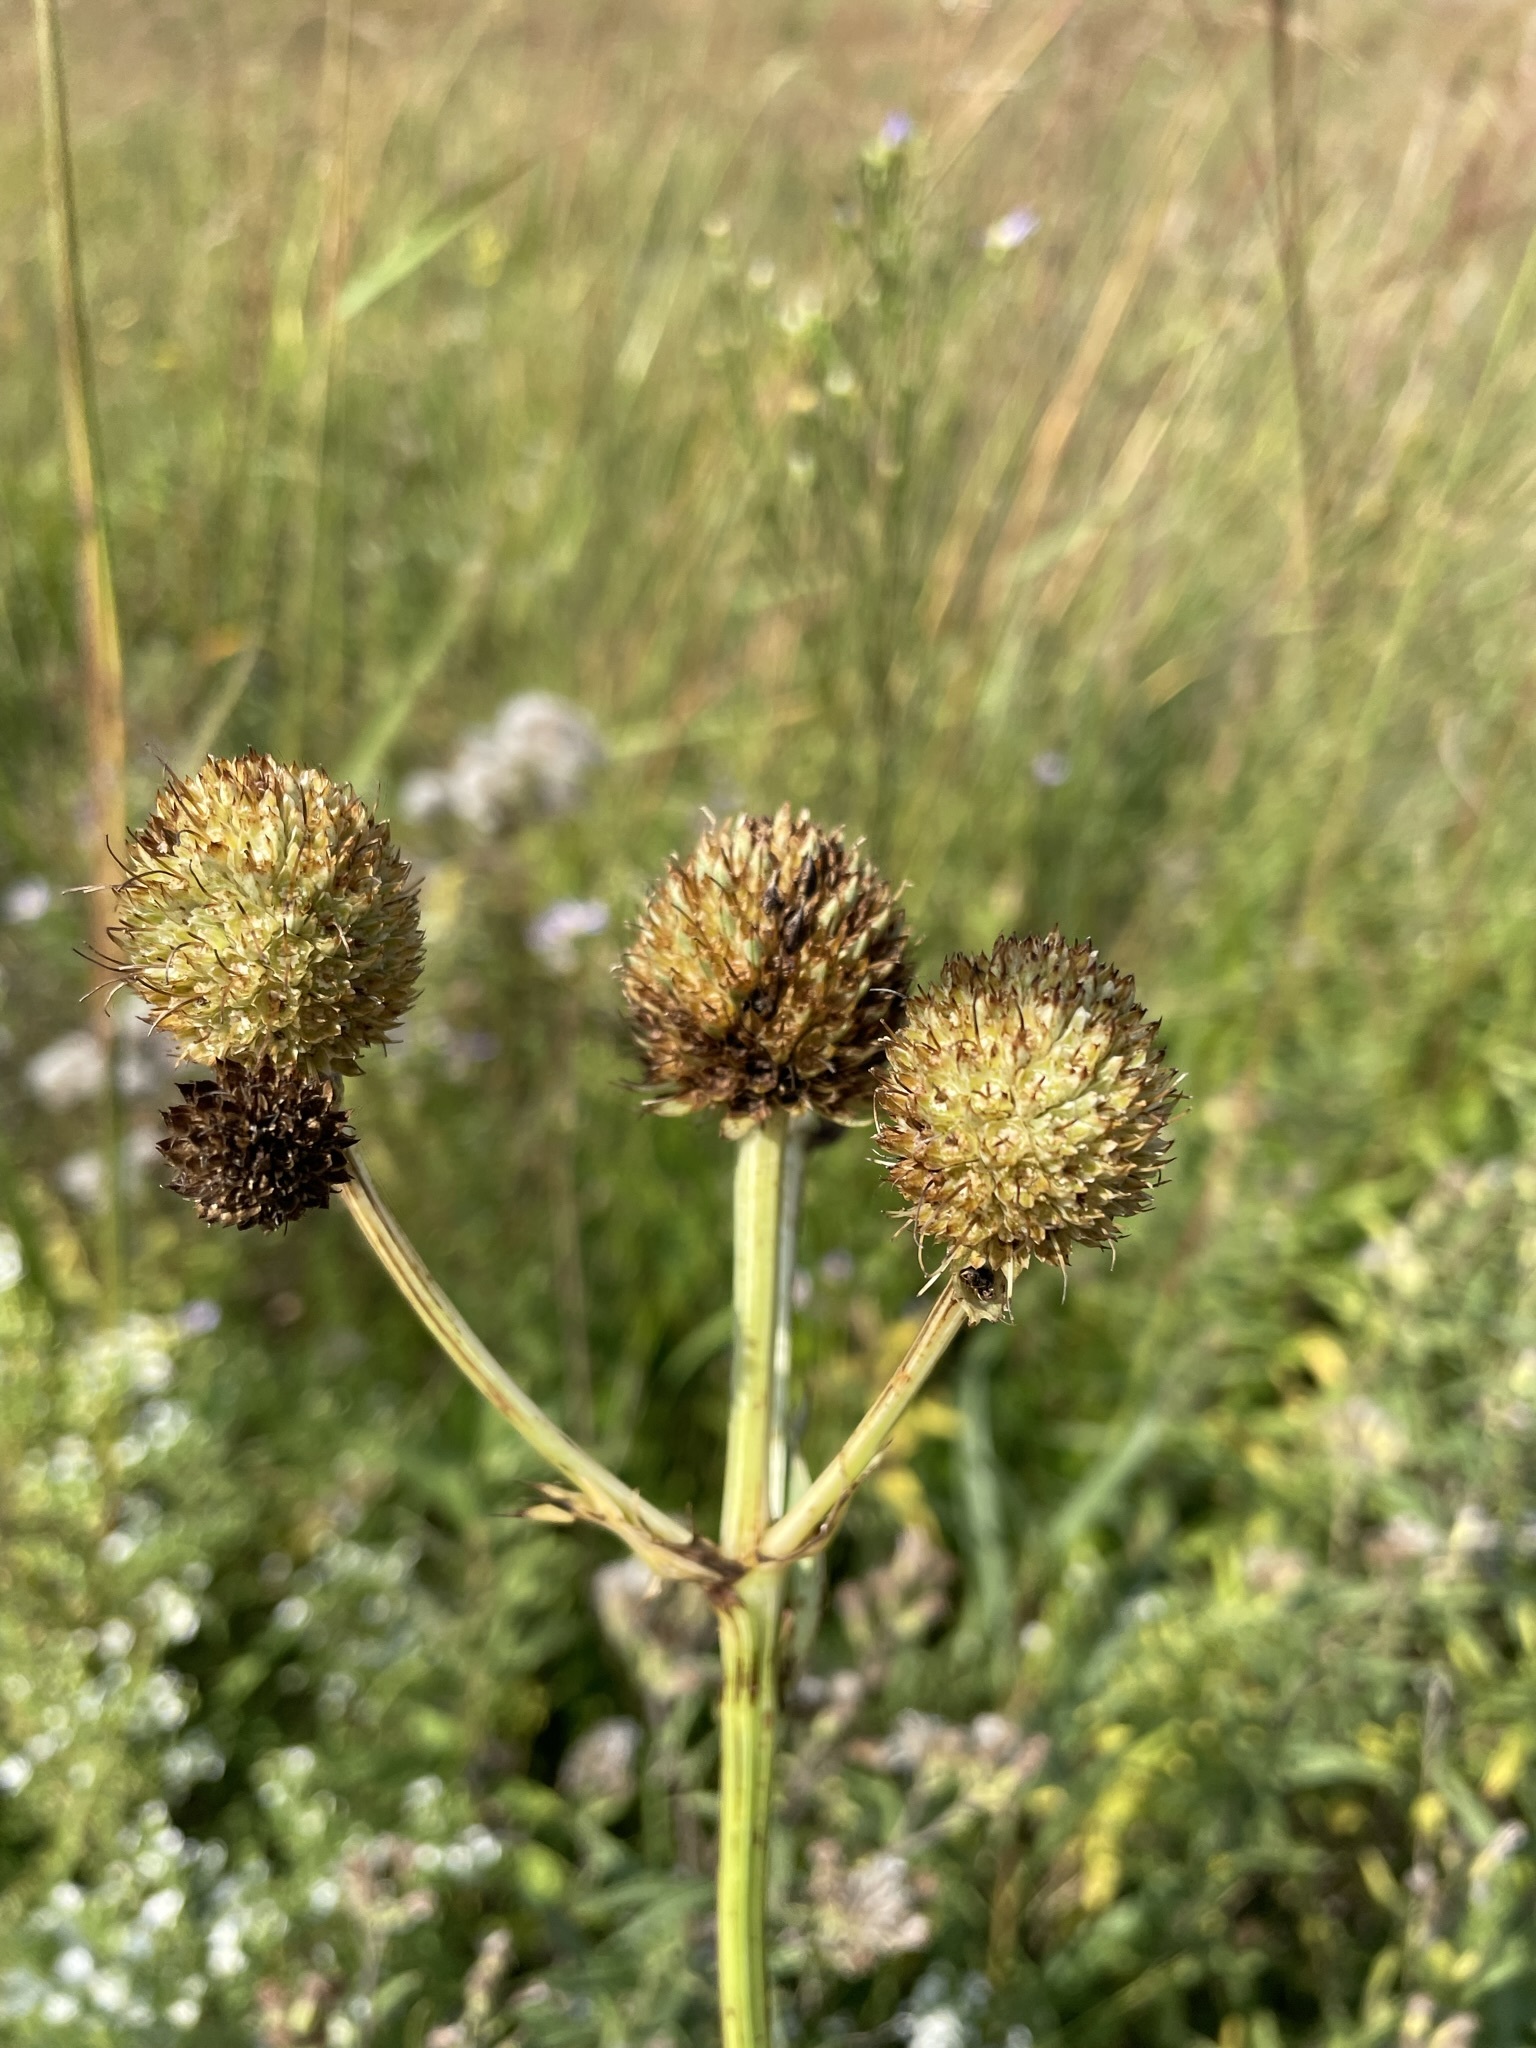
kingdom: Plantae
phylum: Tracheophyta
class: Magnoliopsida
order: Apiales
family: Apiaceae
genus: Eryngium
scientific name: Eryngium yuccifolium
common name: Button eryngo
